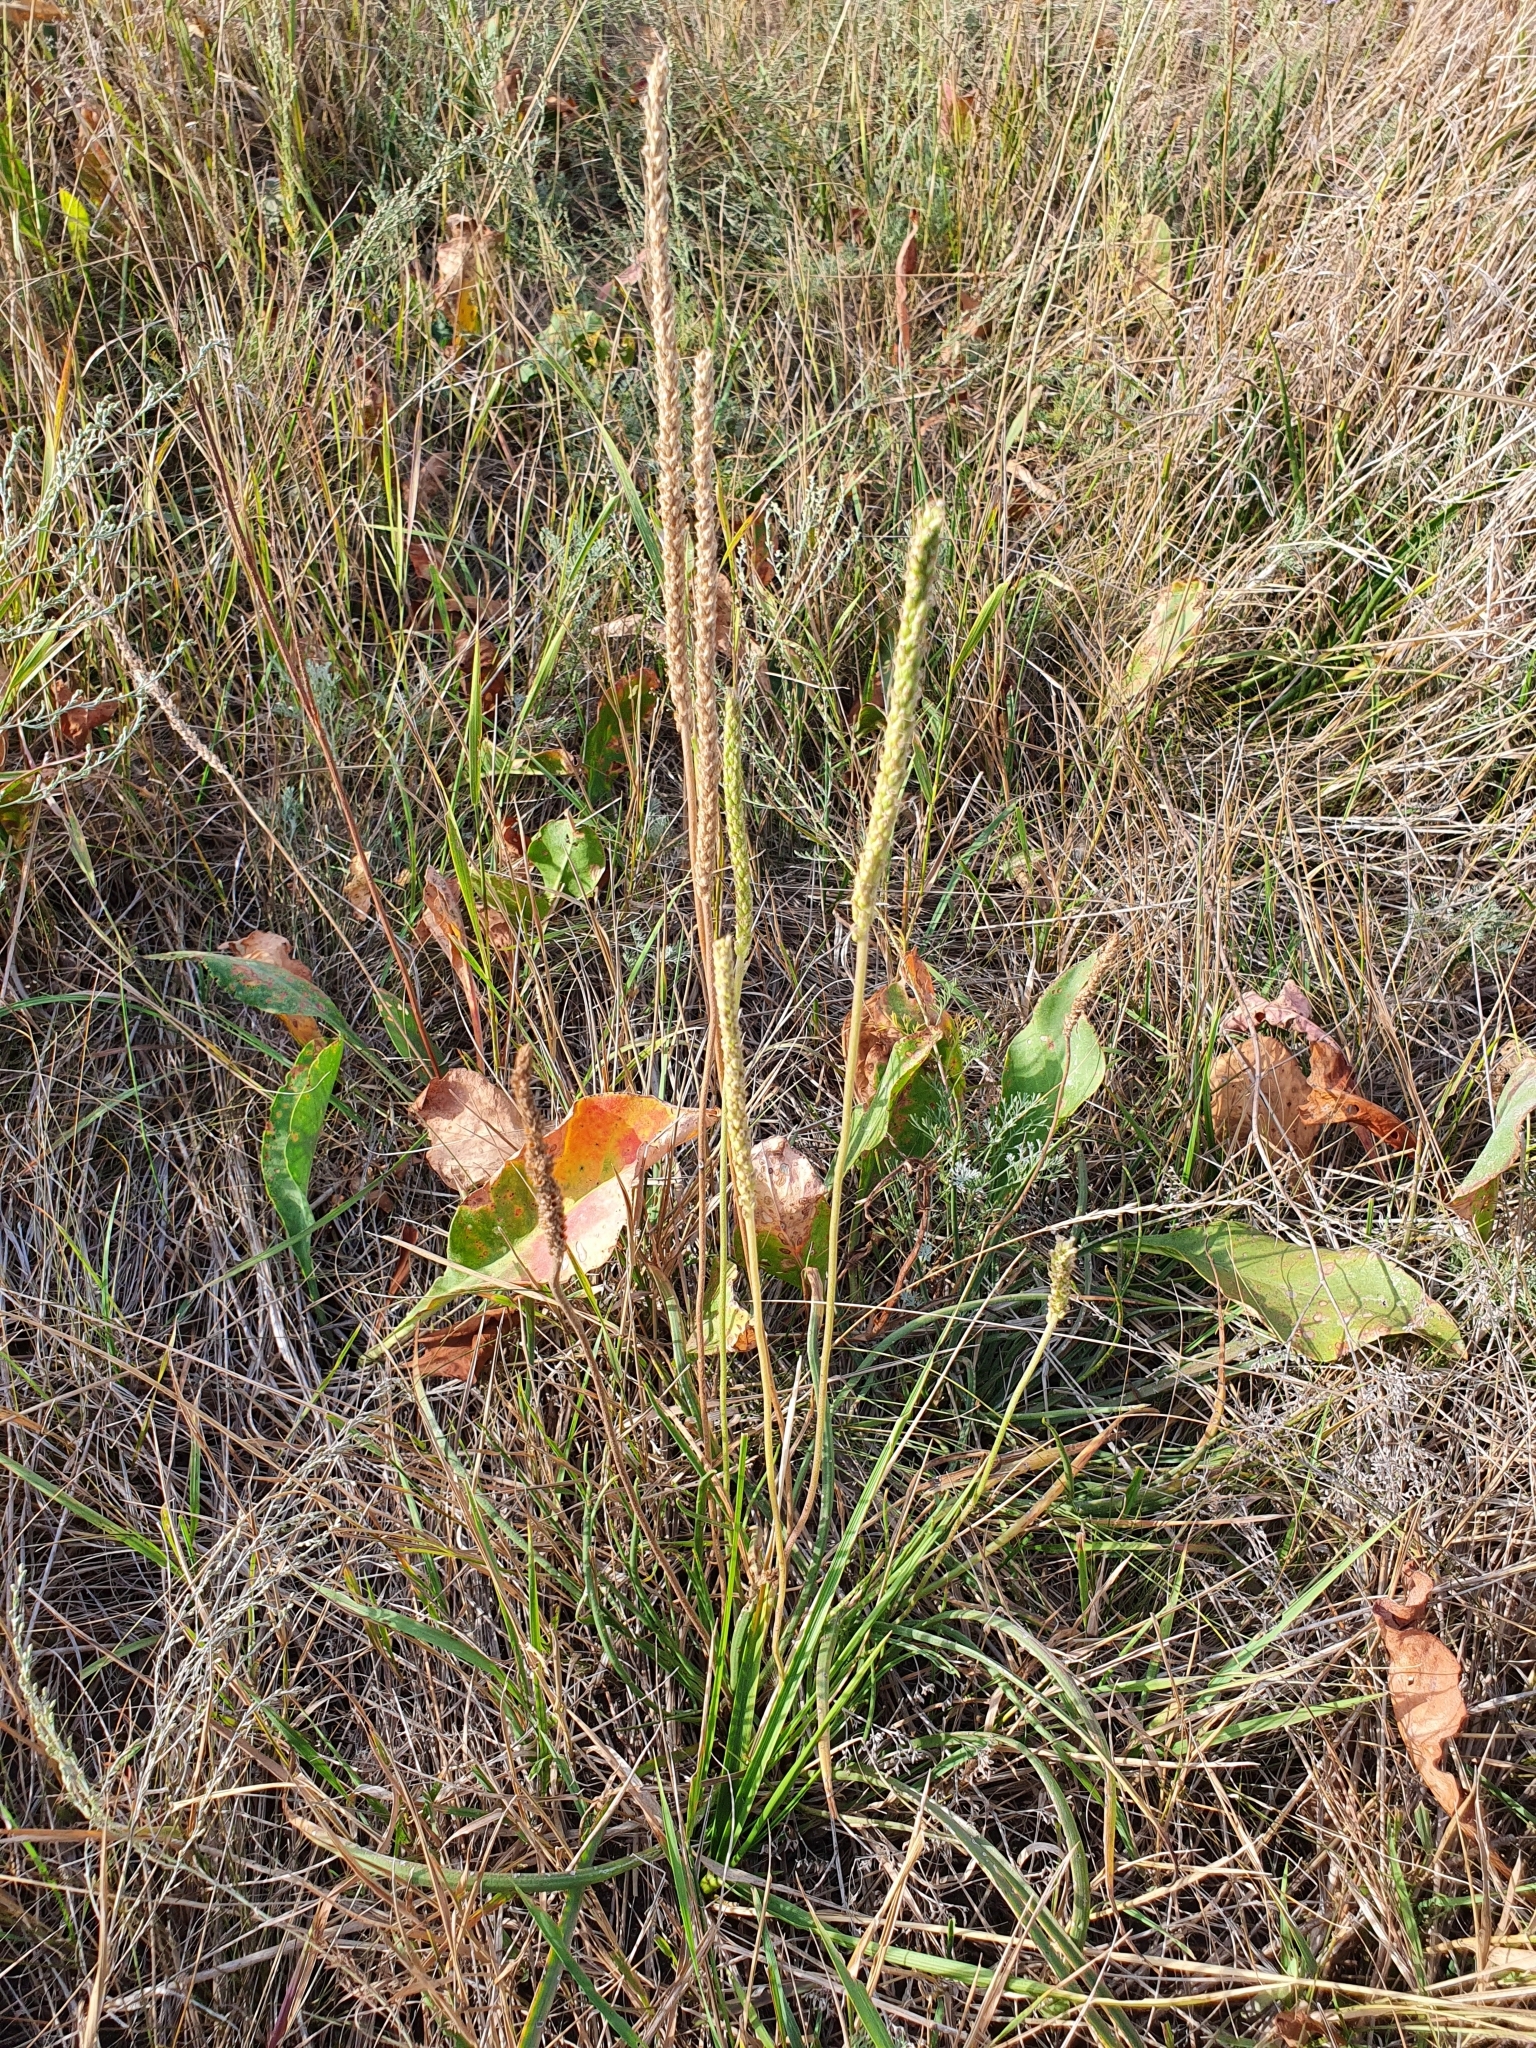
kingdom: Plantae
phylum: Tracheophyta
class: Magnoliopsida
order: Lamiales
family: Plantaginaceae
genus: Plantago
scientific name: Plantago salsa
